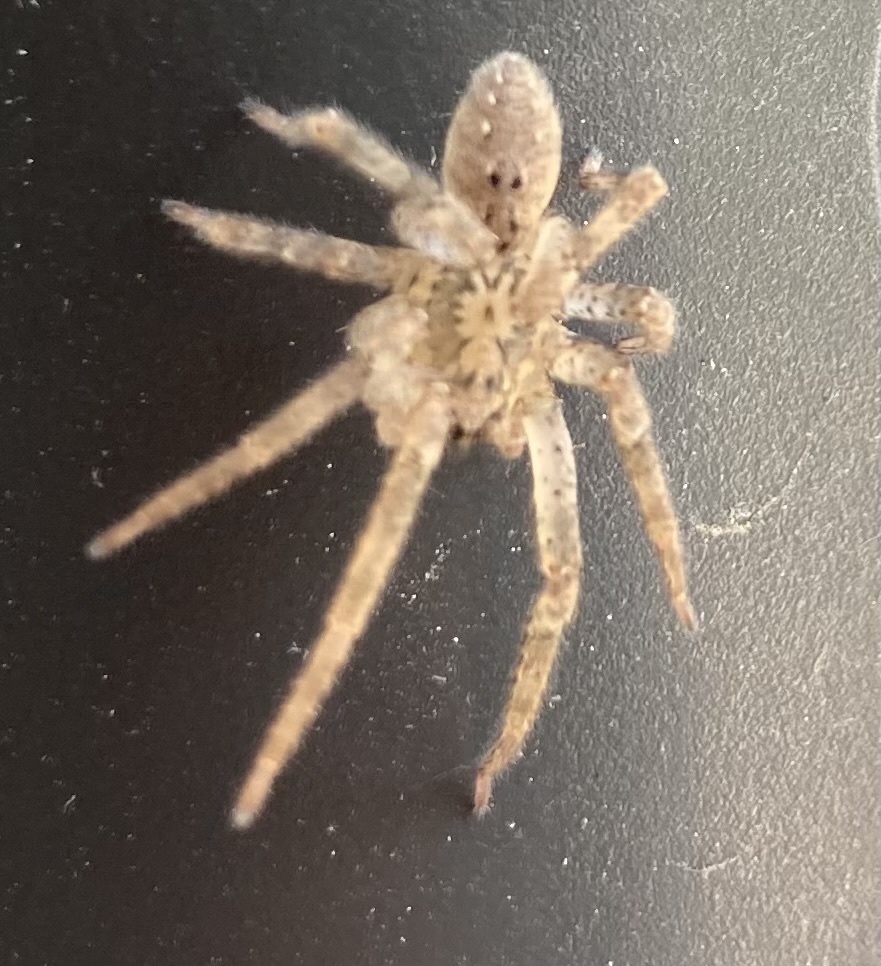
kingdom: Animalia
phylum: Arthropoda
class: Arachnida
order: Araneae
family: Zoropsidae
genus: Zoropsis
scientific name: Zoropsis spinimana
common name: Zoropsid spider
